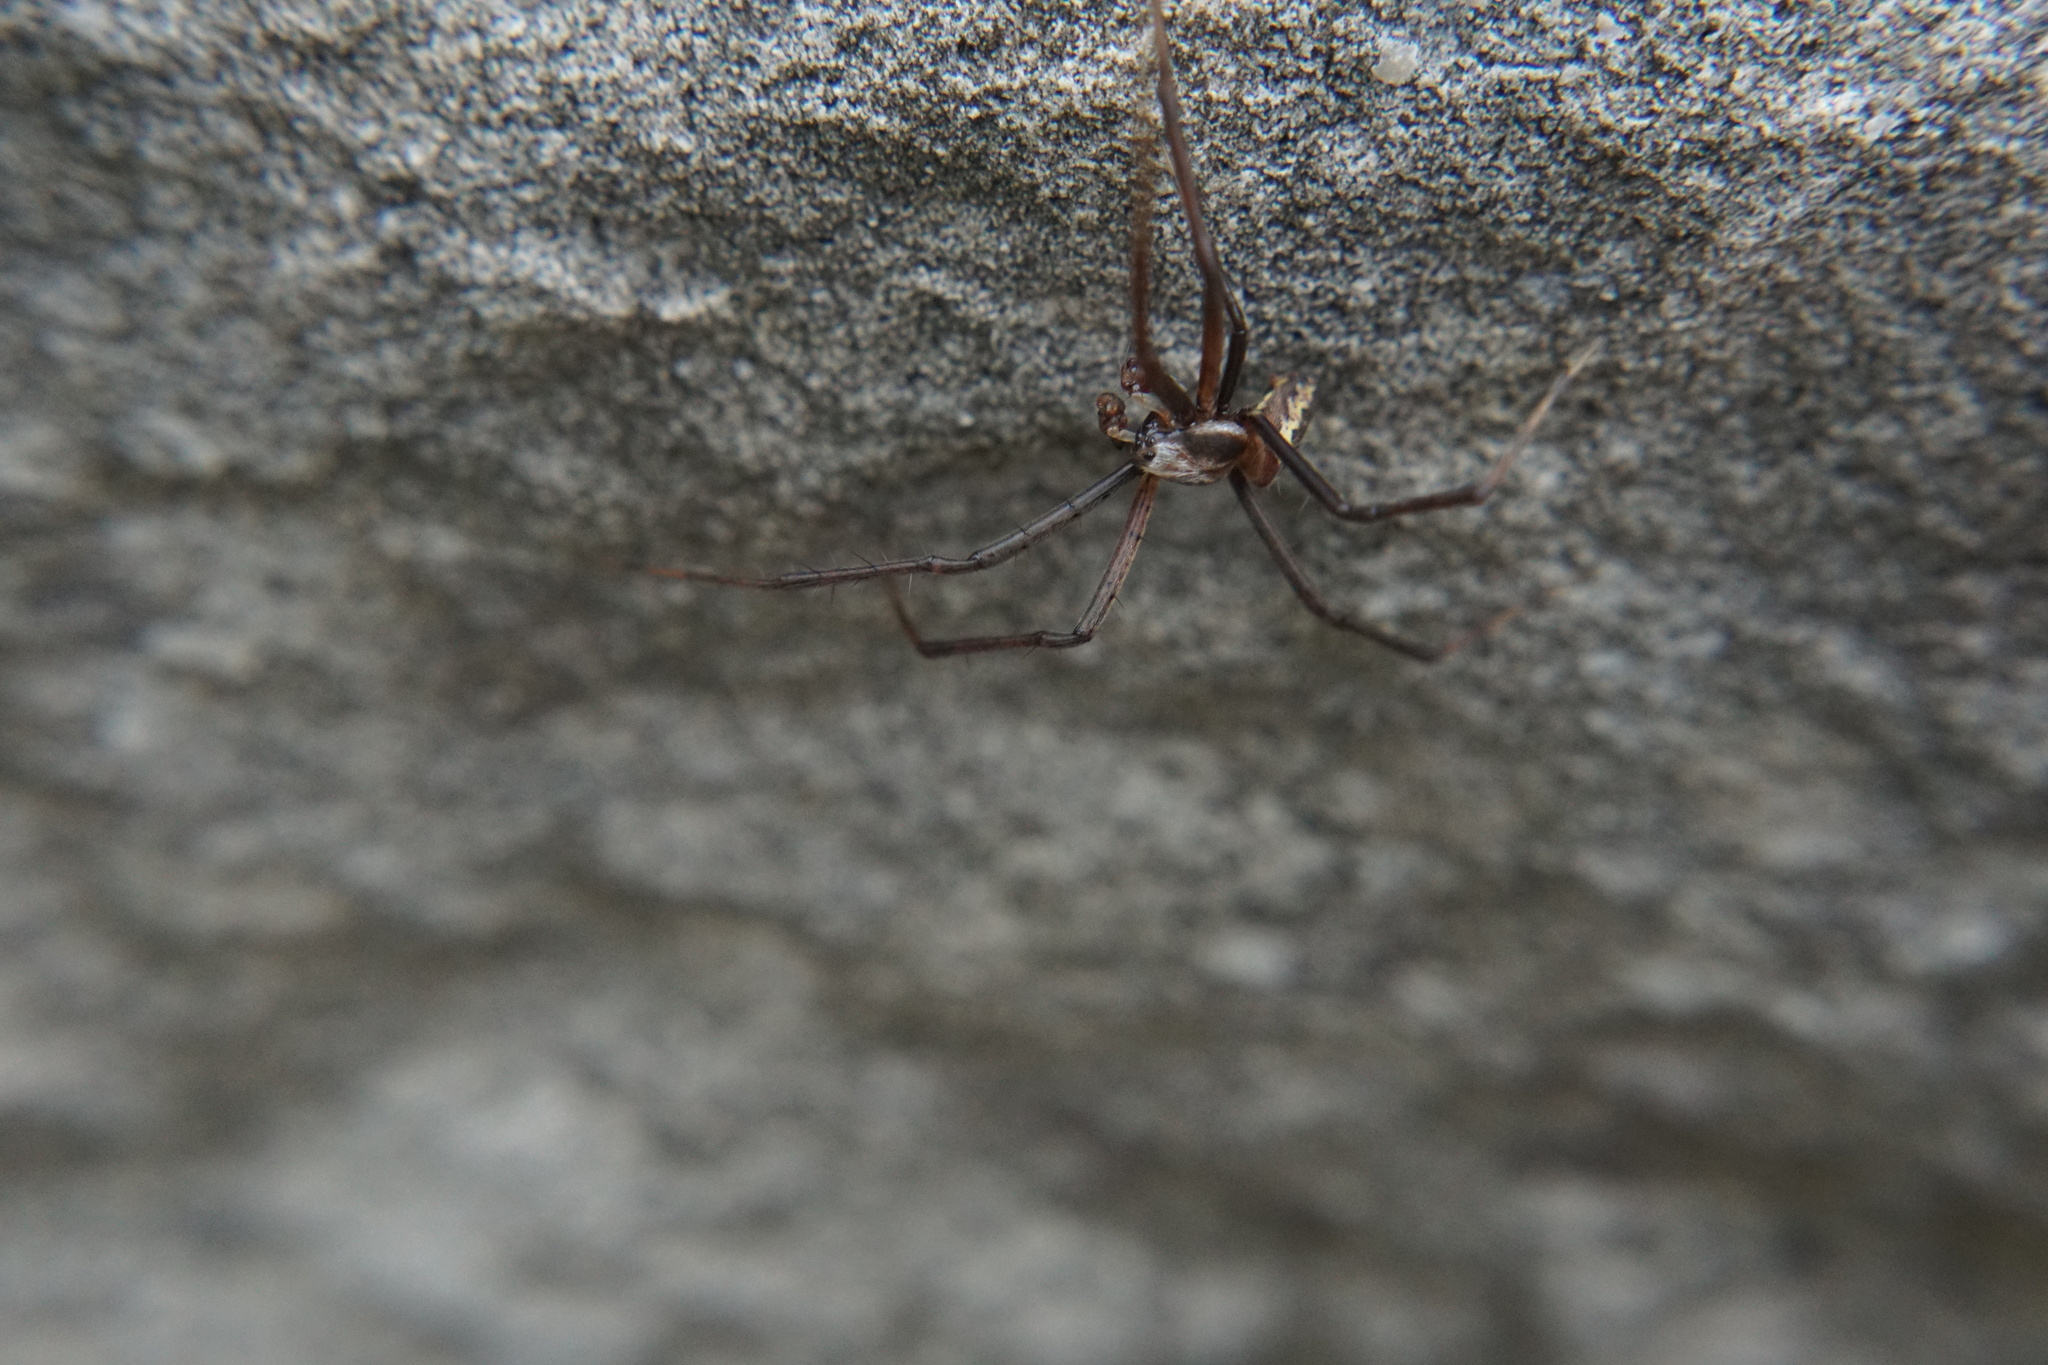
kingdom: Animalia
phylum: Arthropoda
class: Arachnida
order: Araneae
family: Araneidae
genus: Argiope
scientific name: Argiope aurantia
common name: Orb weavers
